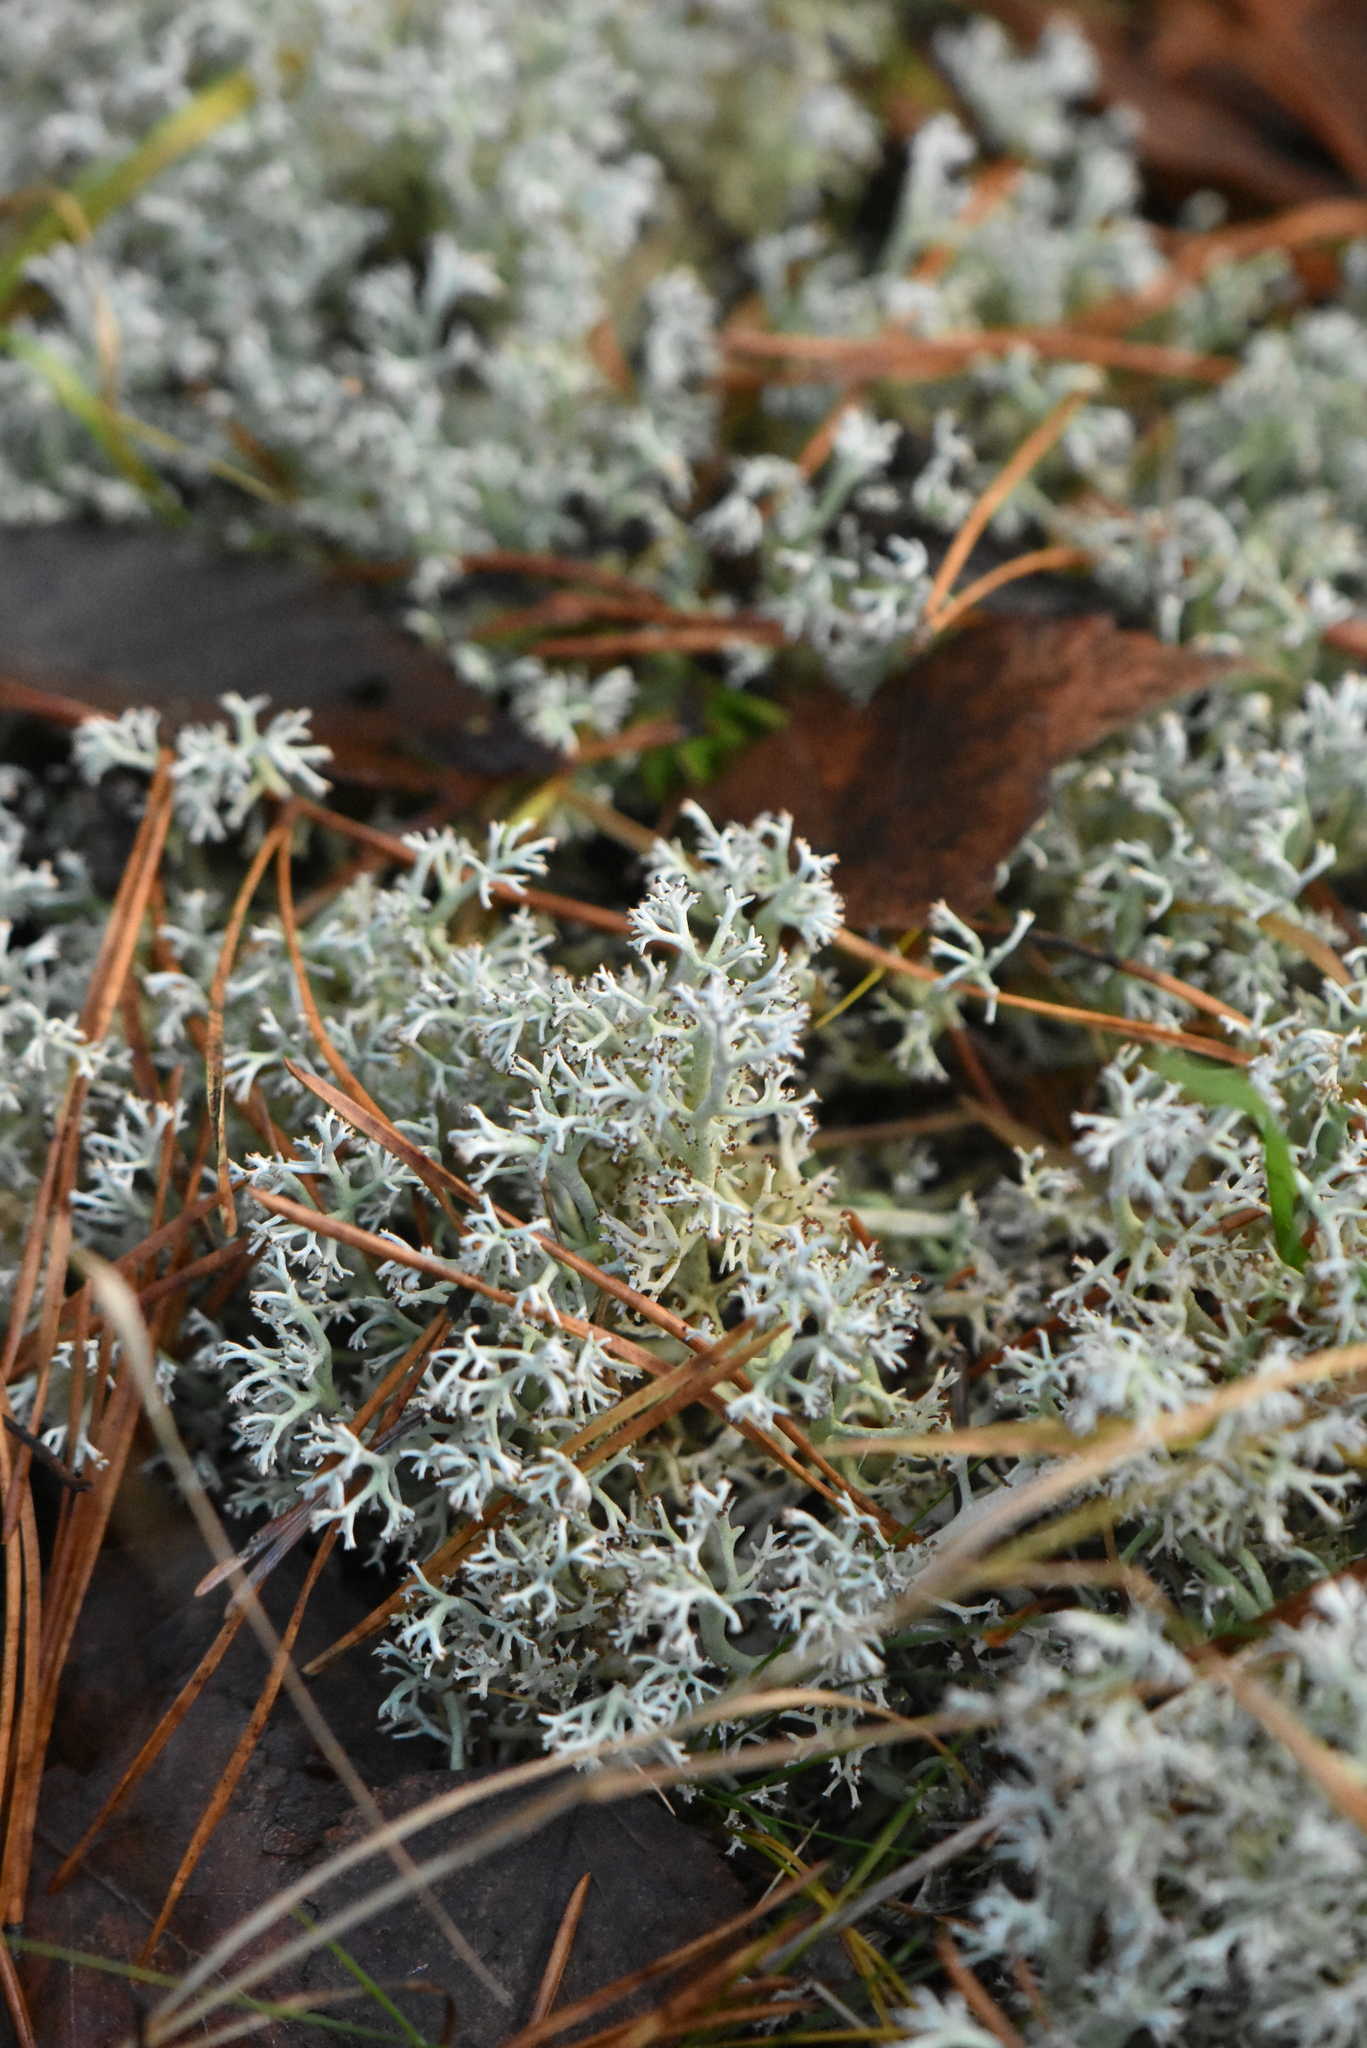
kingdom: Fungi
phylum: Ascomycota
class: Lecanoromycetes
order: Lecanorales
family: Cladoniaceae
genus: Cladonia
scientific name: Cladonia rangiferina
